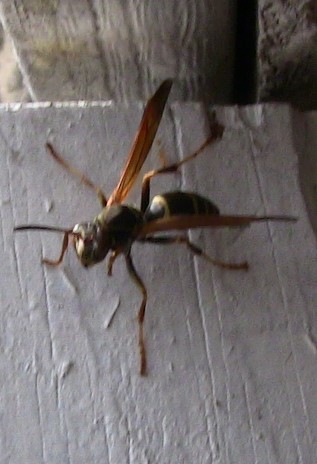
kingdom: Animalia
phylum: Arthropoda
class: Insecta
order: Hymenoptera
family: Eumenidae
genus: Polistes
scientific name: Polistes fuscatus
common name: Dark paper wasp
